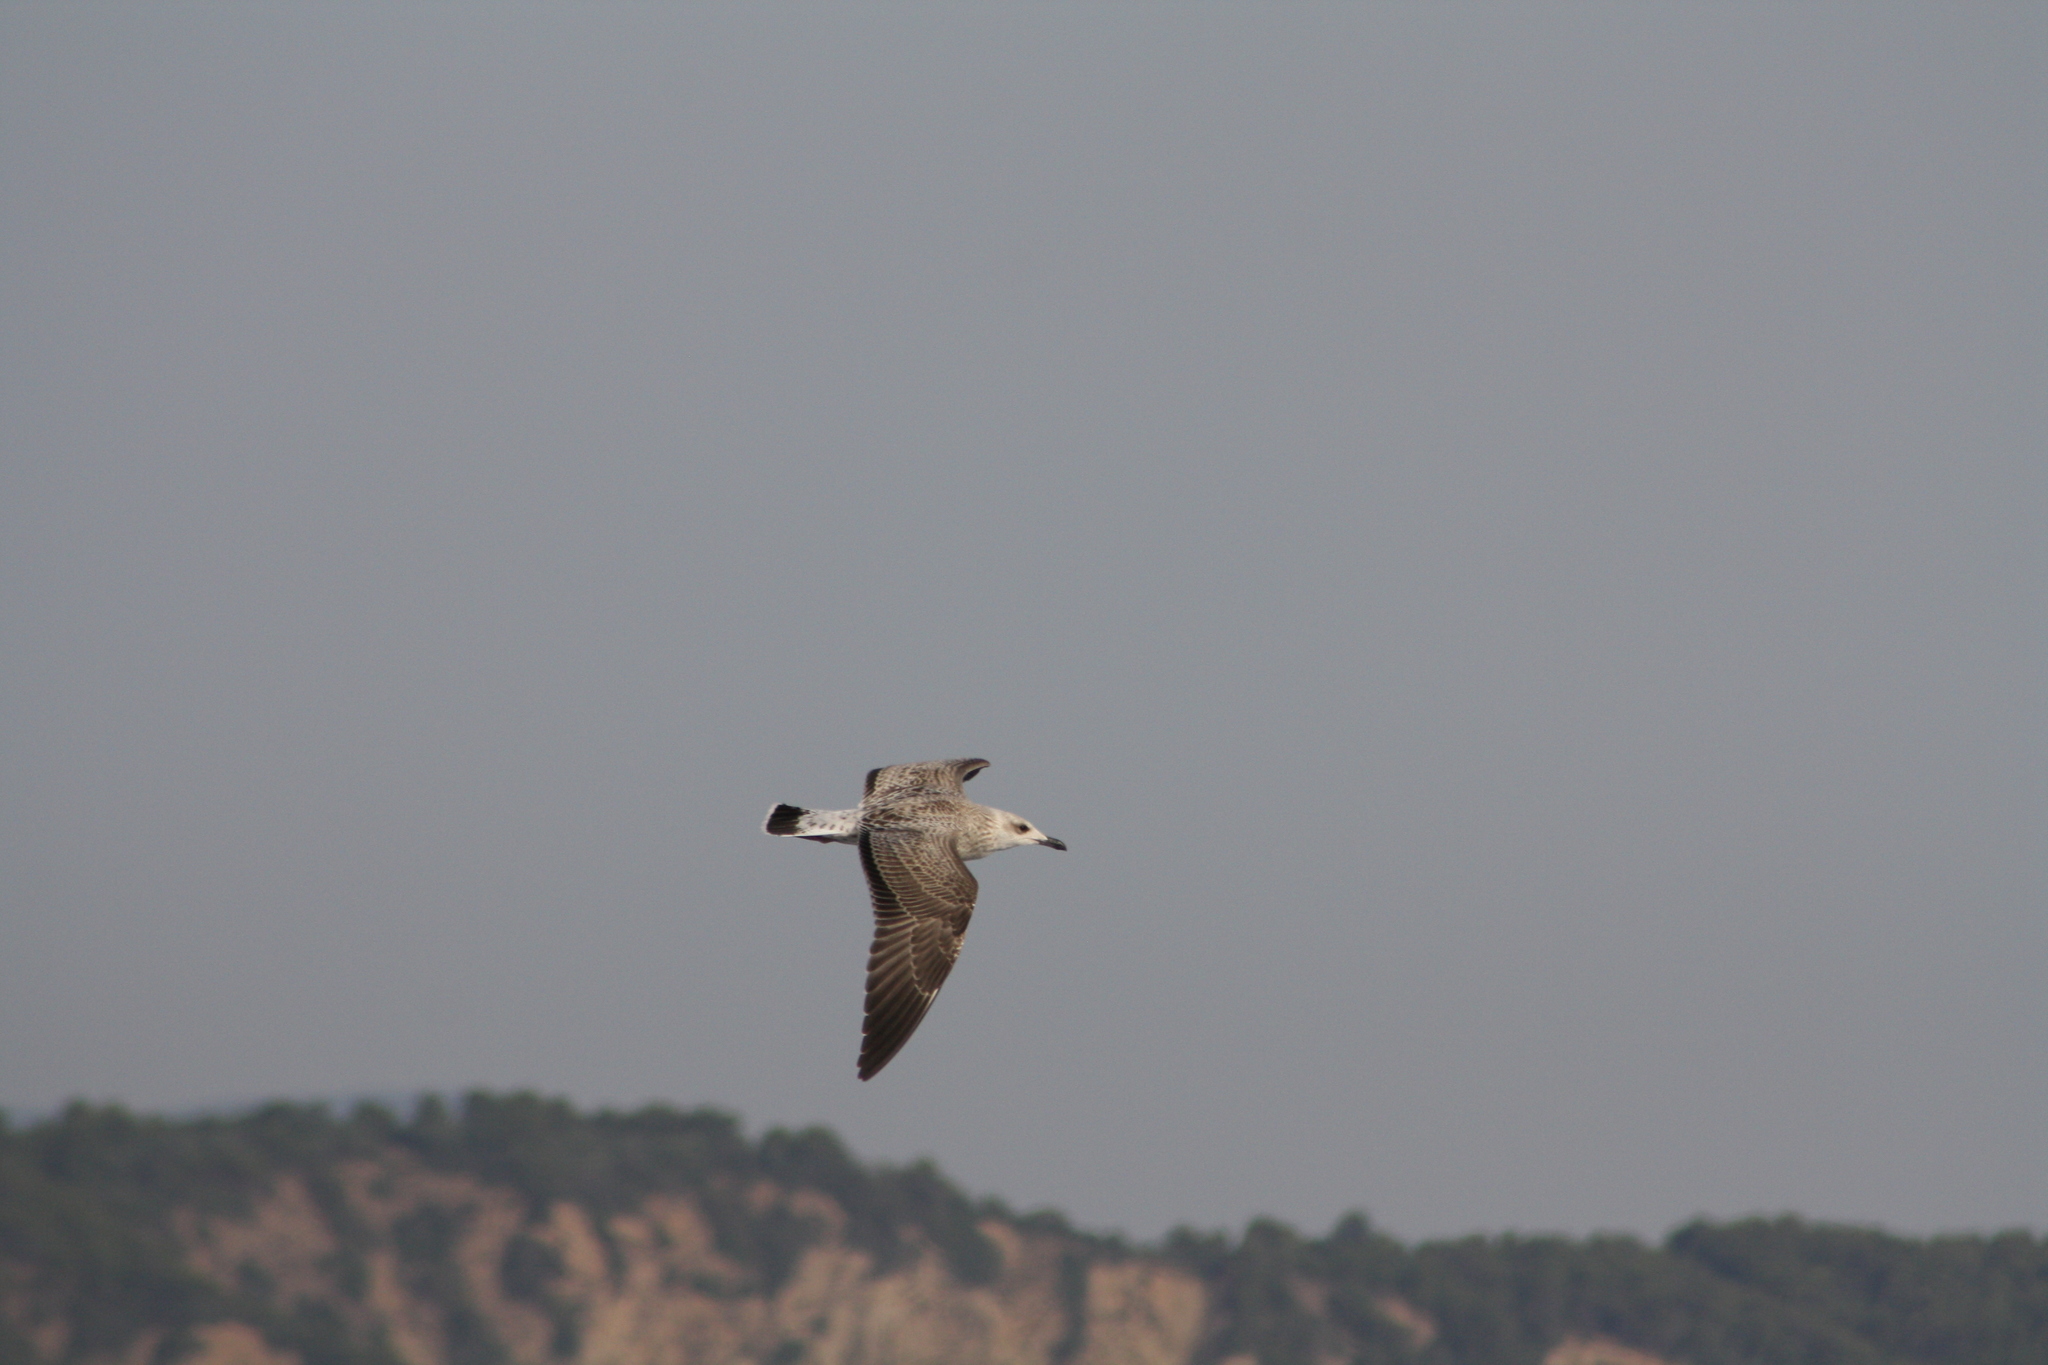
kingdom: Animalia
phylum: Chordata
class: Aves
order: Charadriiformes
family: Laridae
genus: Larus
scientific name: Larus michahellis
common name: Yellow-legged gull
